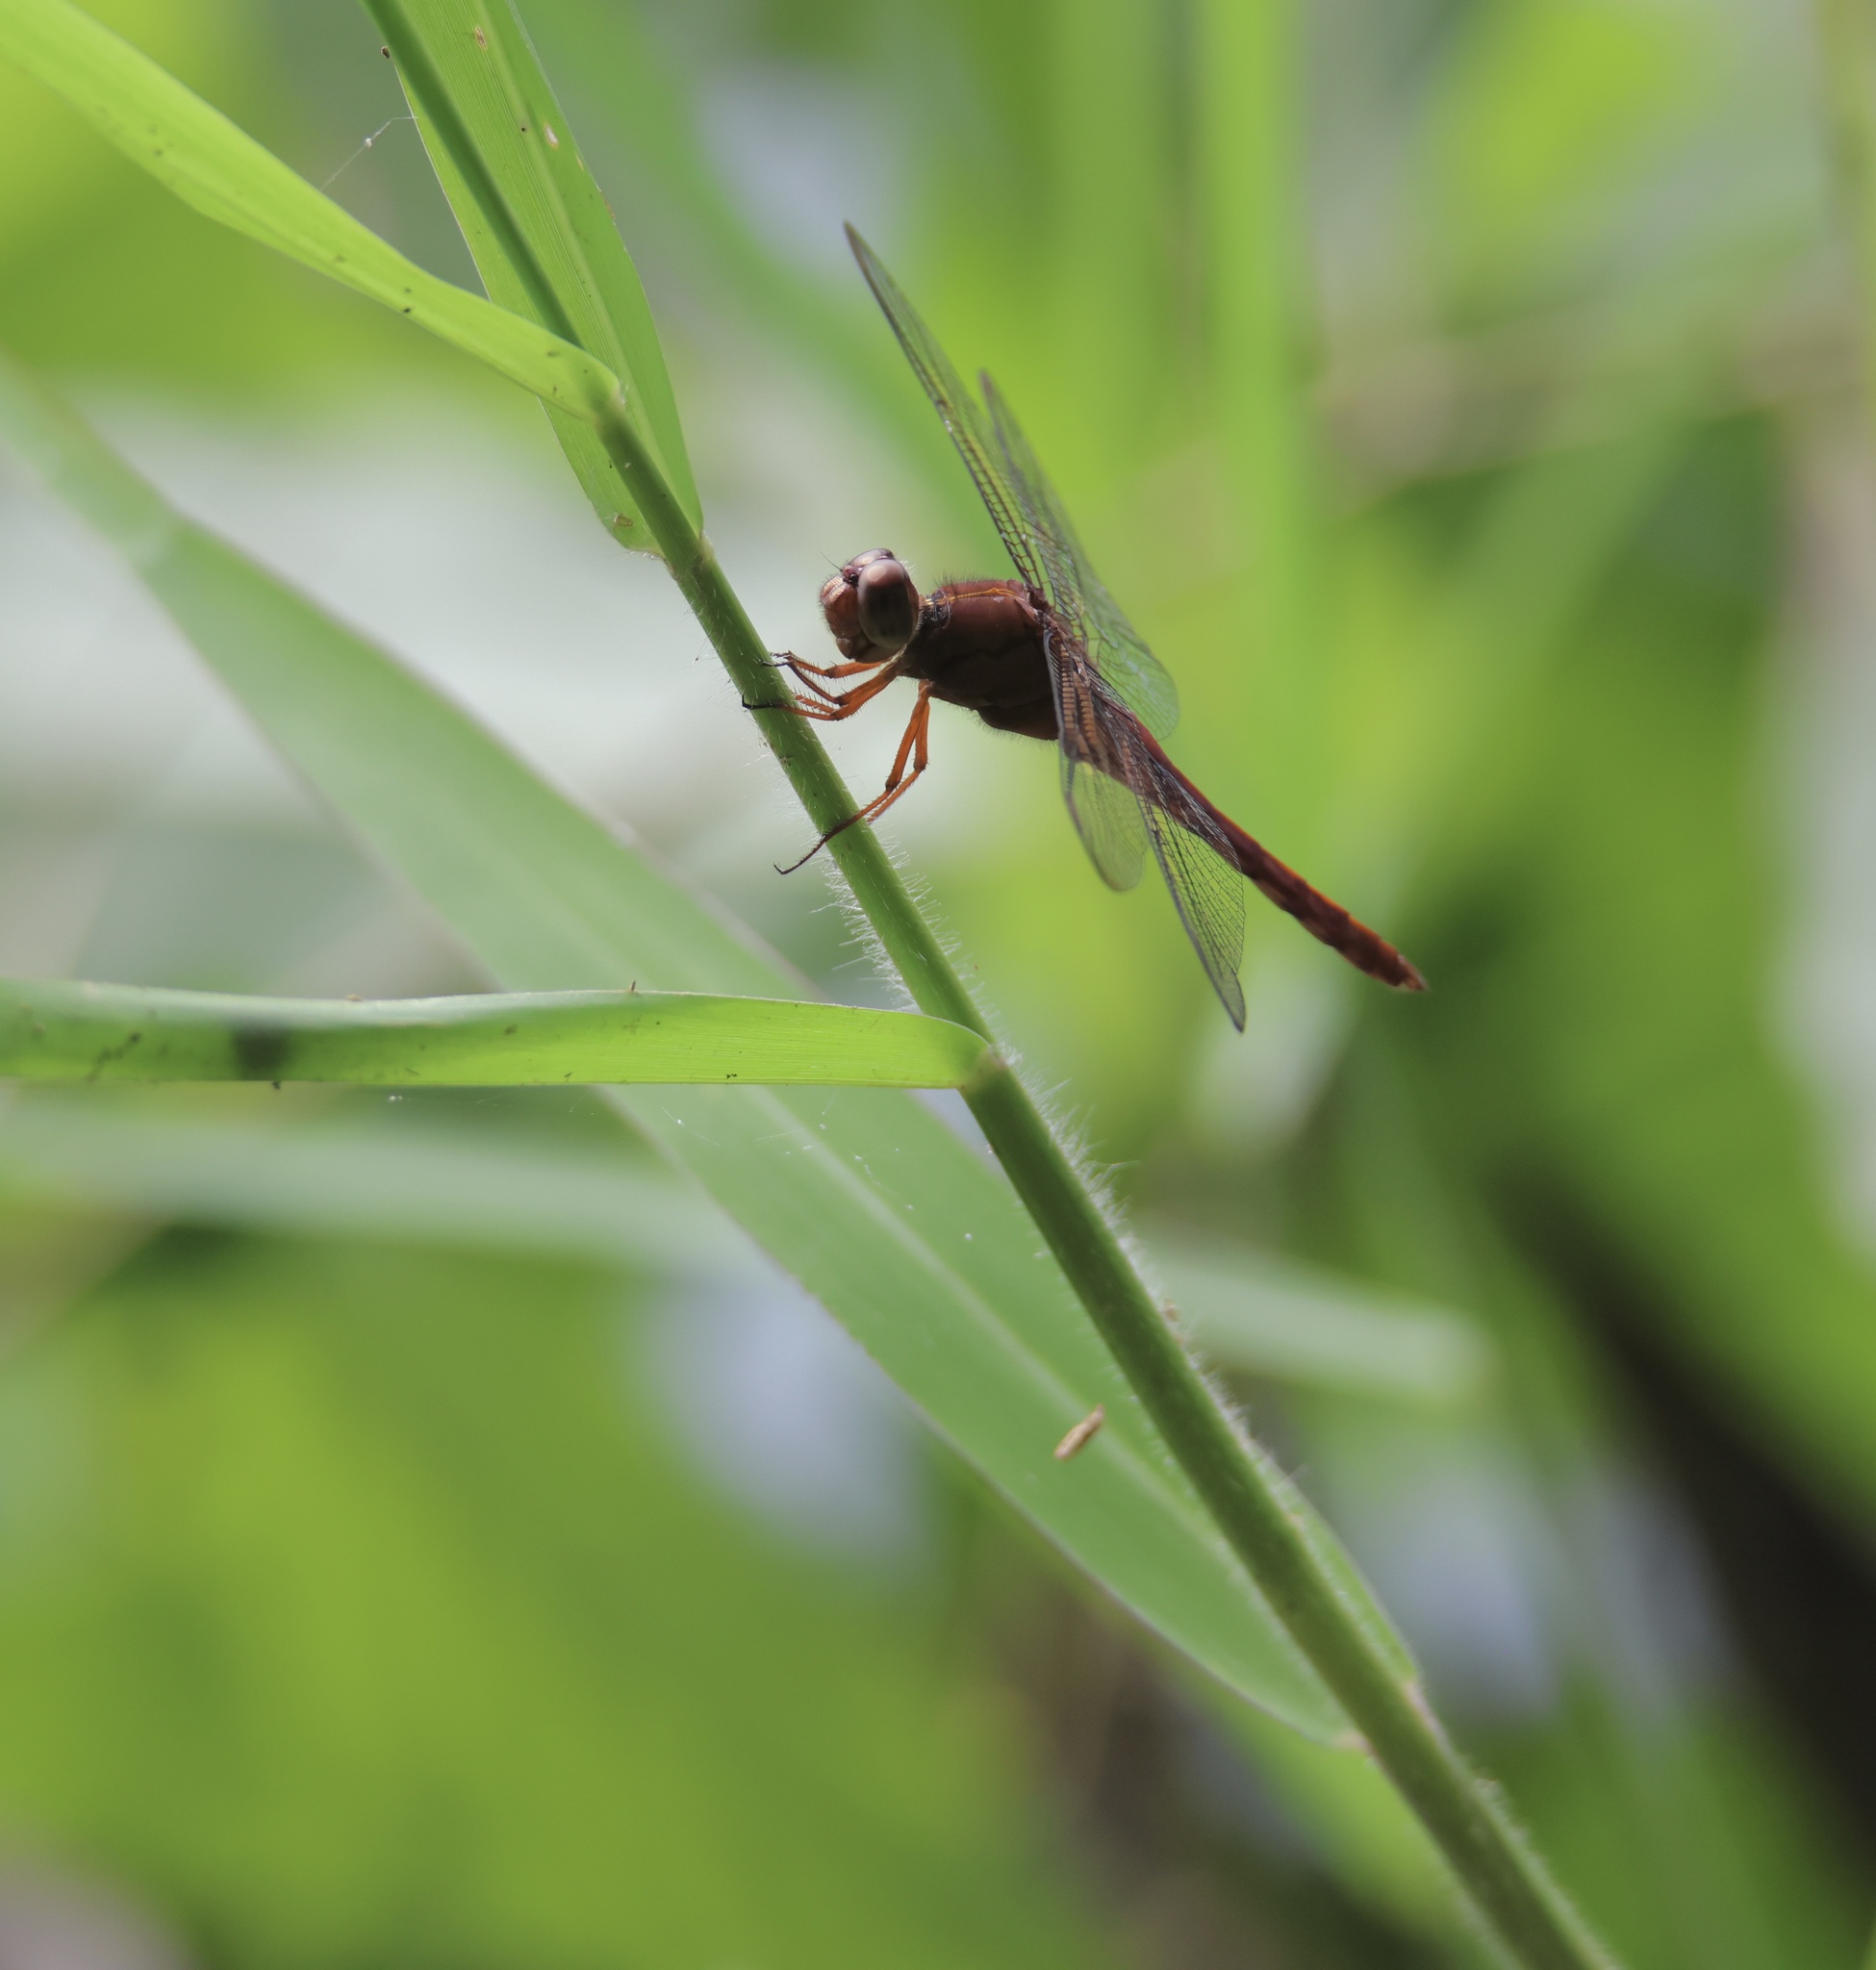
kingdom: Animalia
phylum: Arthropoda
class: Insecta
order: Odonata
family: Libellulidae
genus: Orthemis
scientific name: Orthemis discolor
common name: Carmine skimmer
